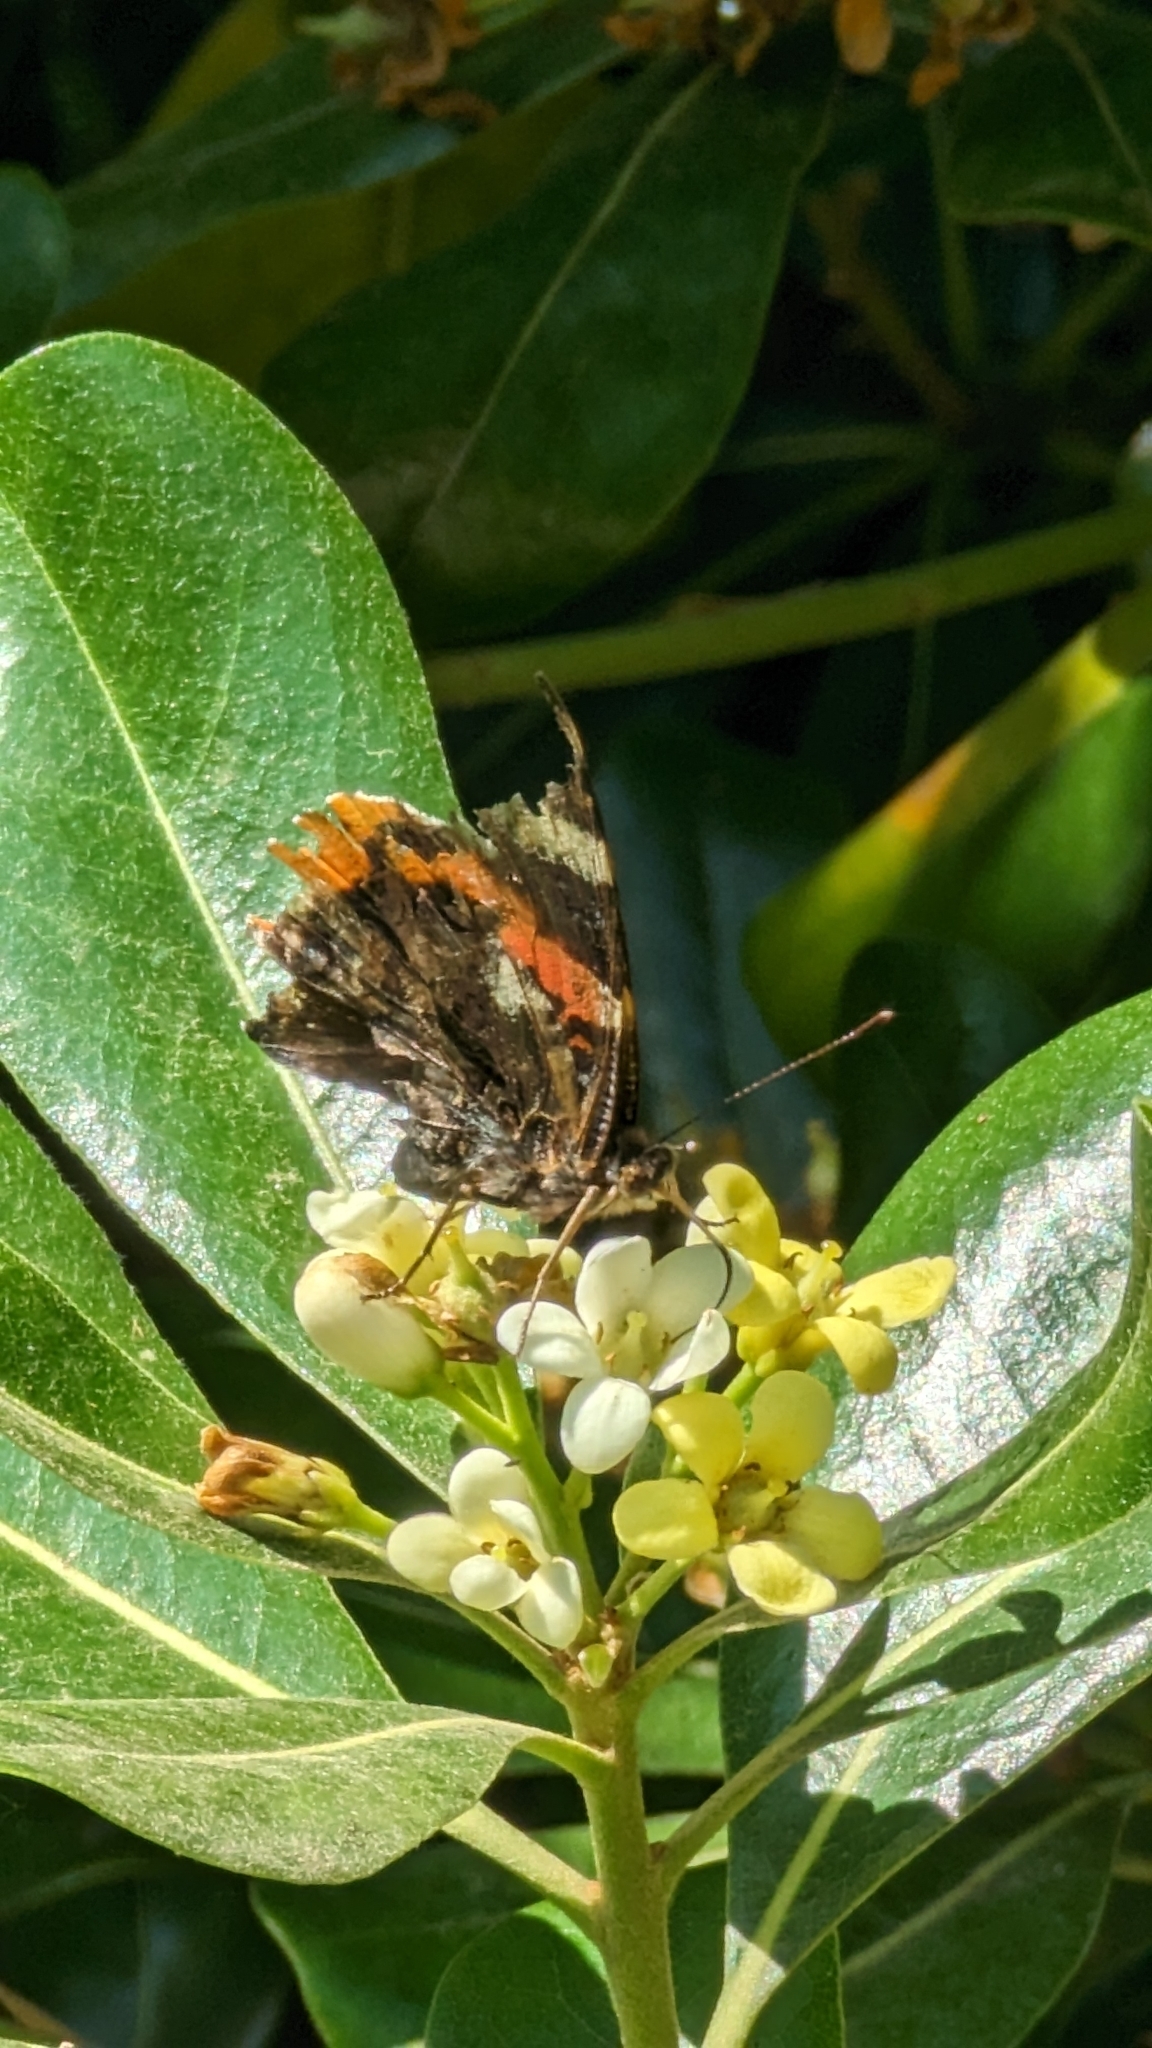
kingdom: Animalia
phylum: Arthropoda
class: Insecta
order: Lepidoptera
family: Nymphalidae
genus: Vanessa
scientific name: Vanessa atalanta
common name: Red admiral
